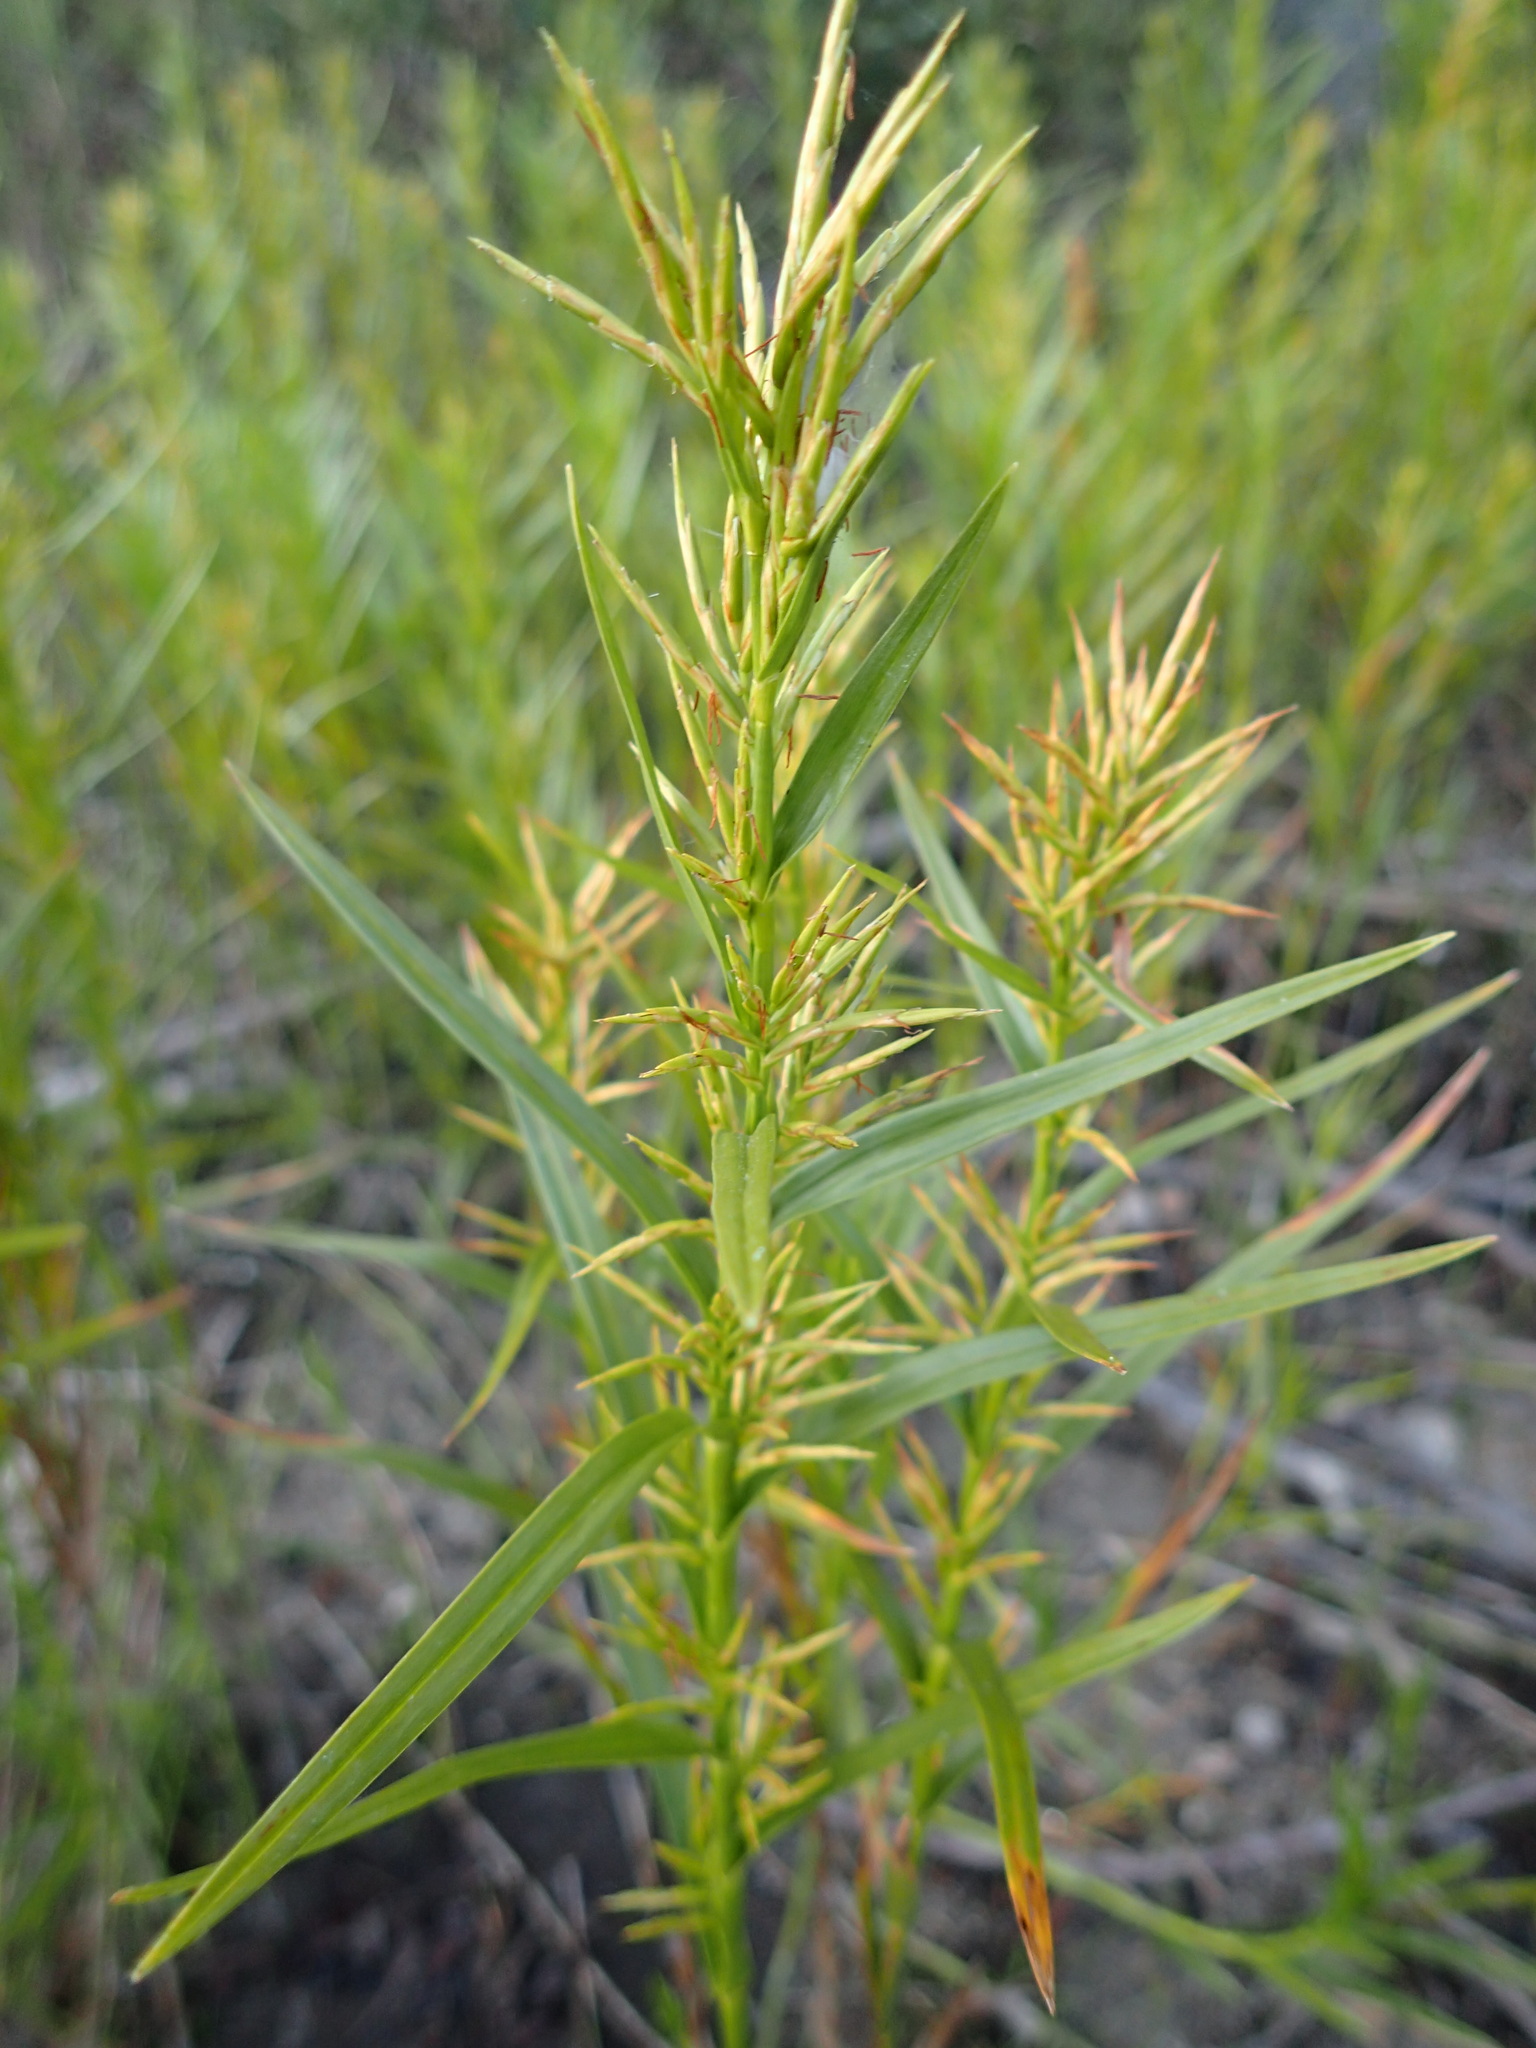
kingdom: Plantae
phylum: Tracheophyta
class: Liliopsida
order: Poales
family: Cyperaceae
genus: Dulichium
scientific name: Dulichium arundinaceum
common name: Three-way sedge
